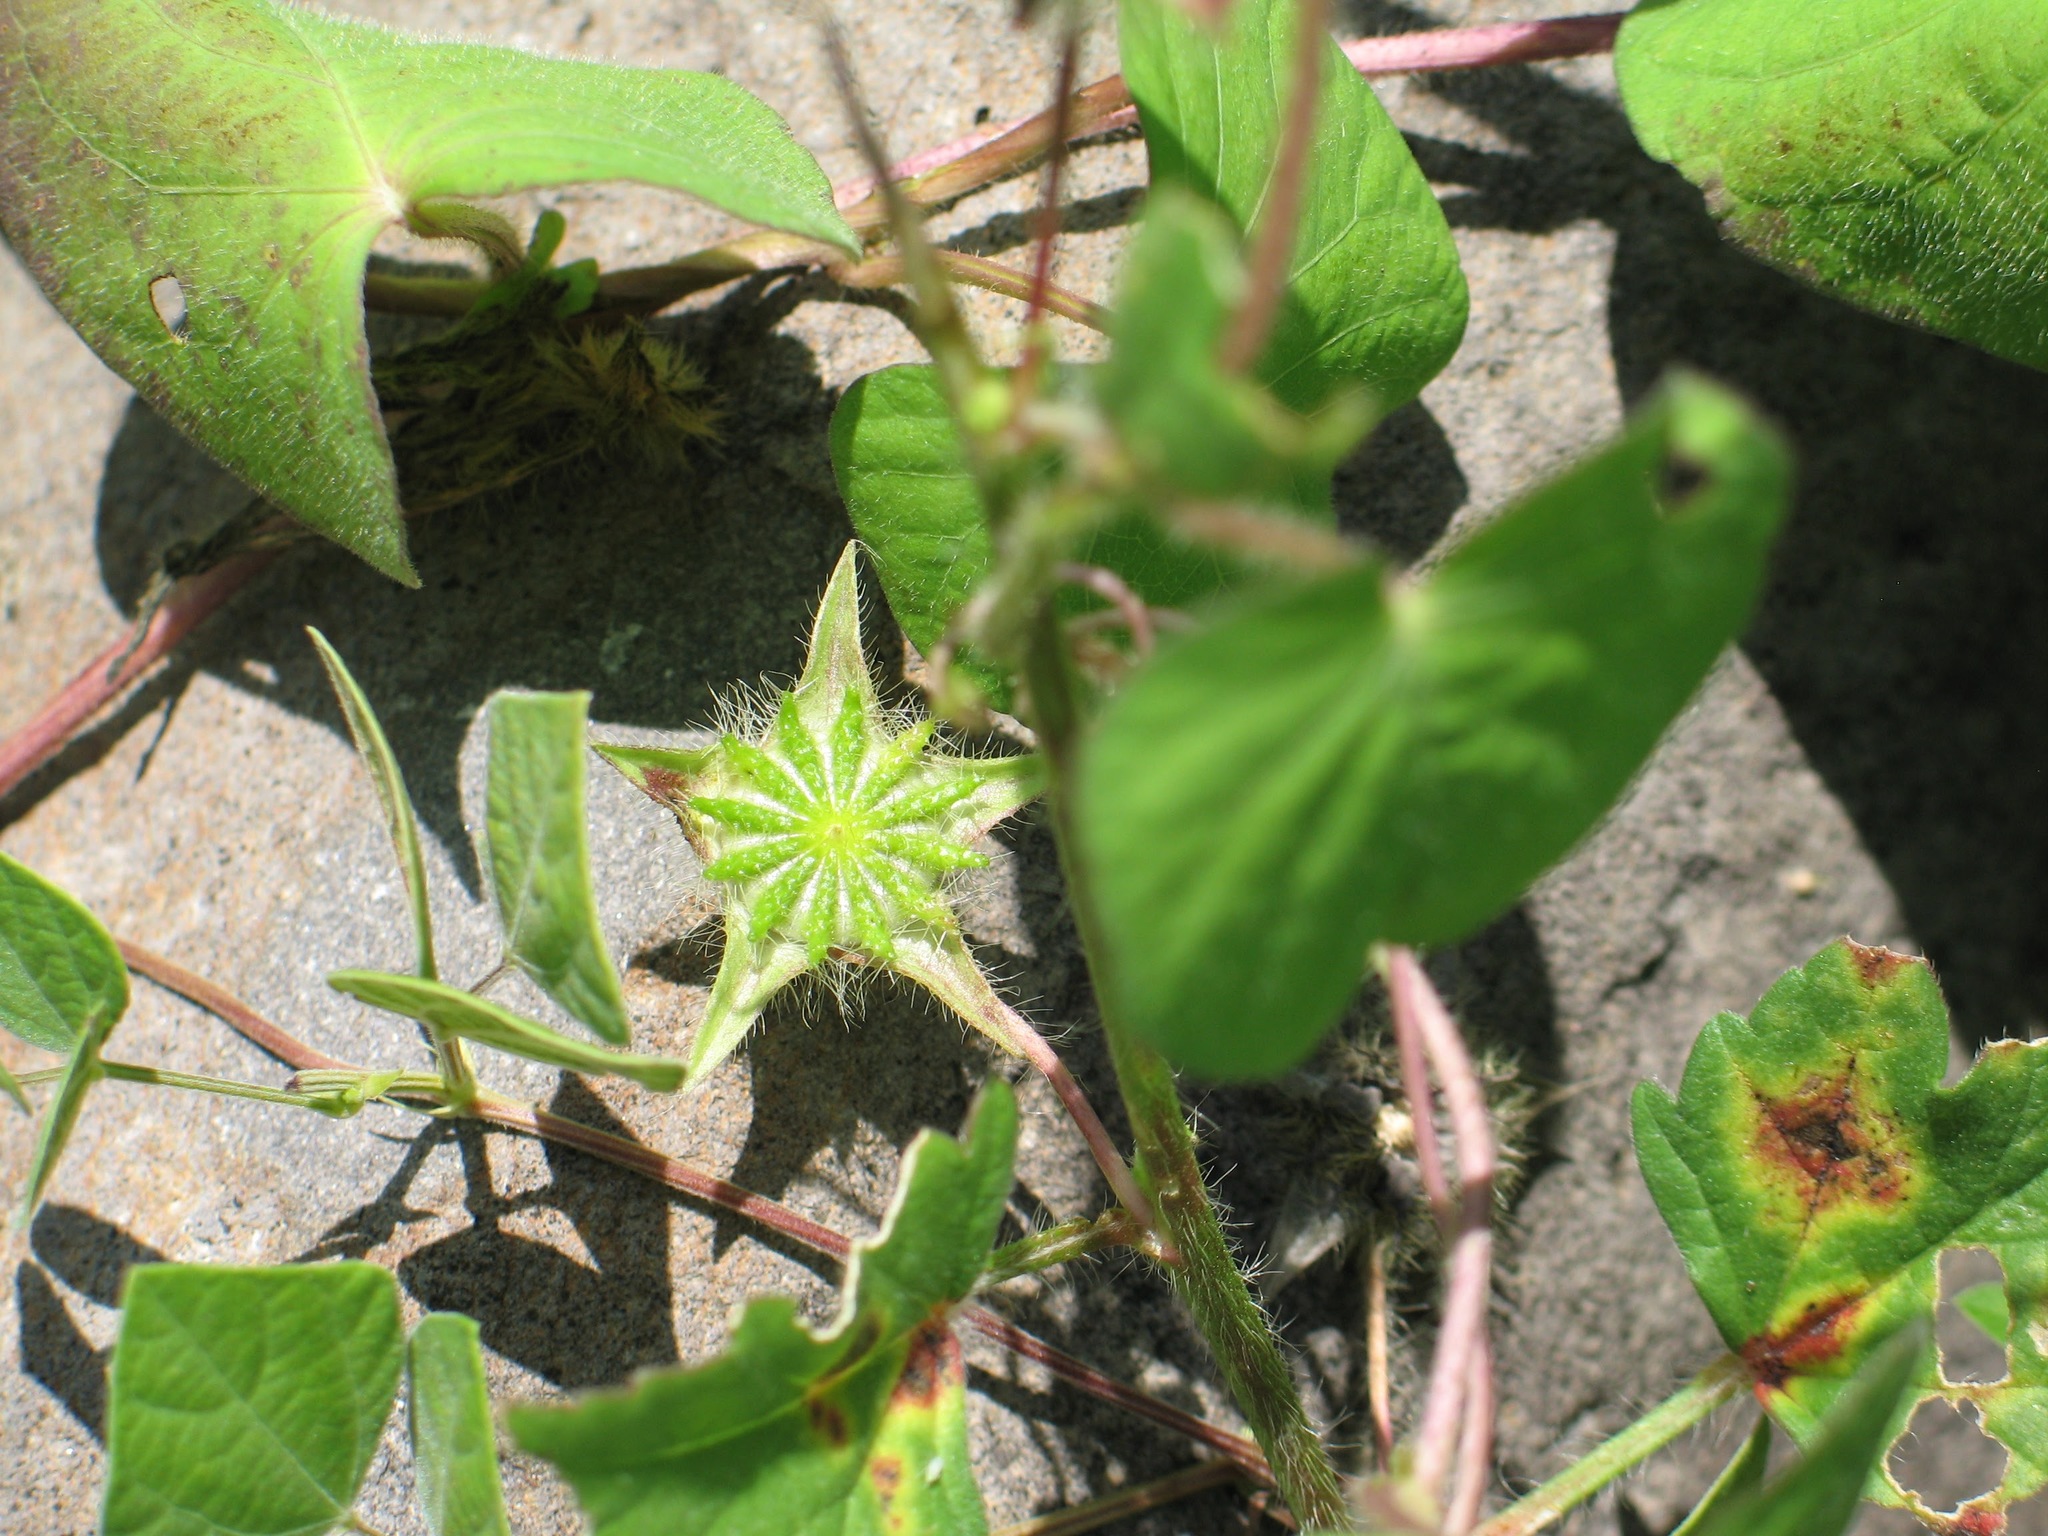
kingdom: Plantae
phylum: Tracheophyta
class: Magnoliopsida
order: Malvales
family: Malvaceae
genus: Anoda
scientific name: Anoda cristata
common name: Spurred anoda
